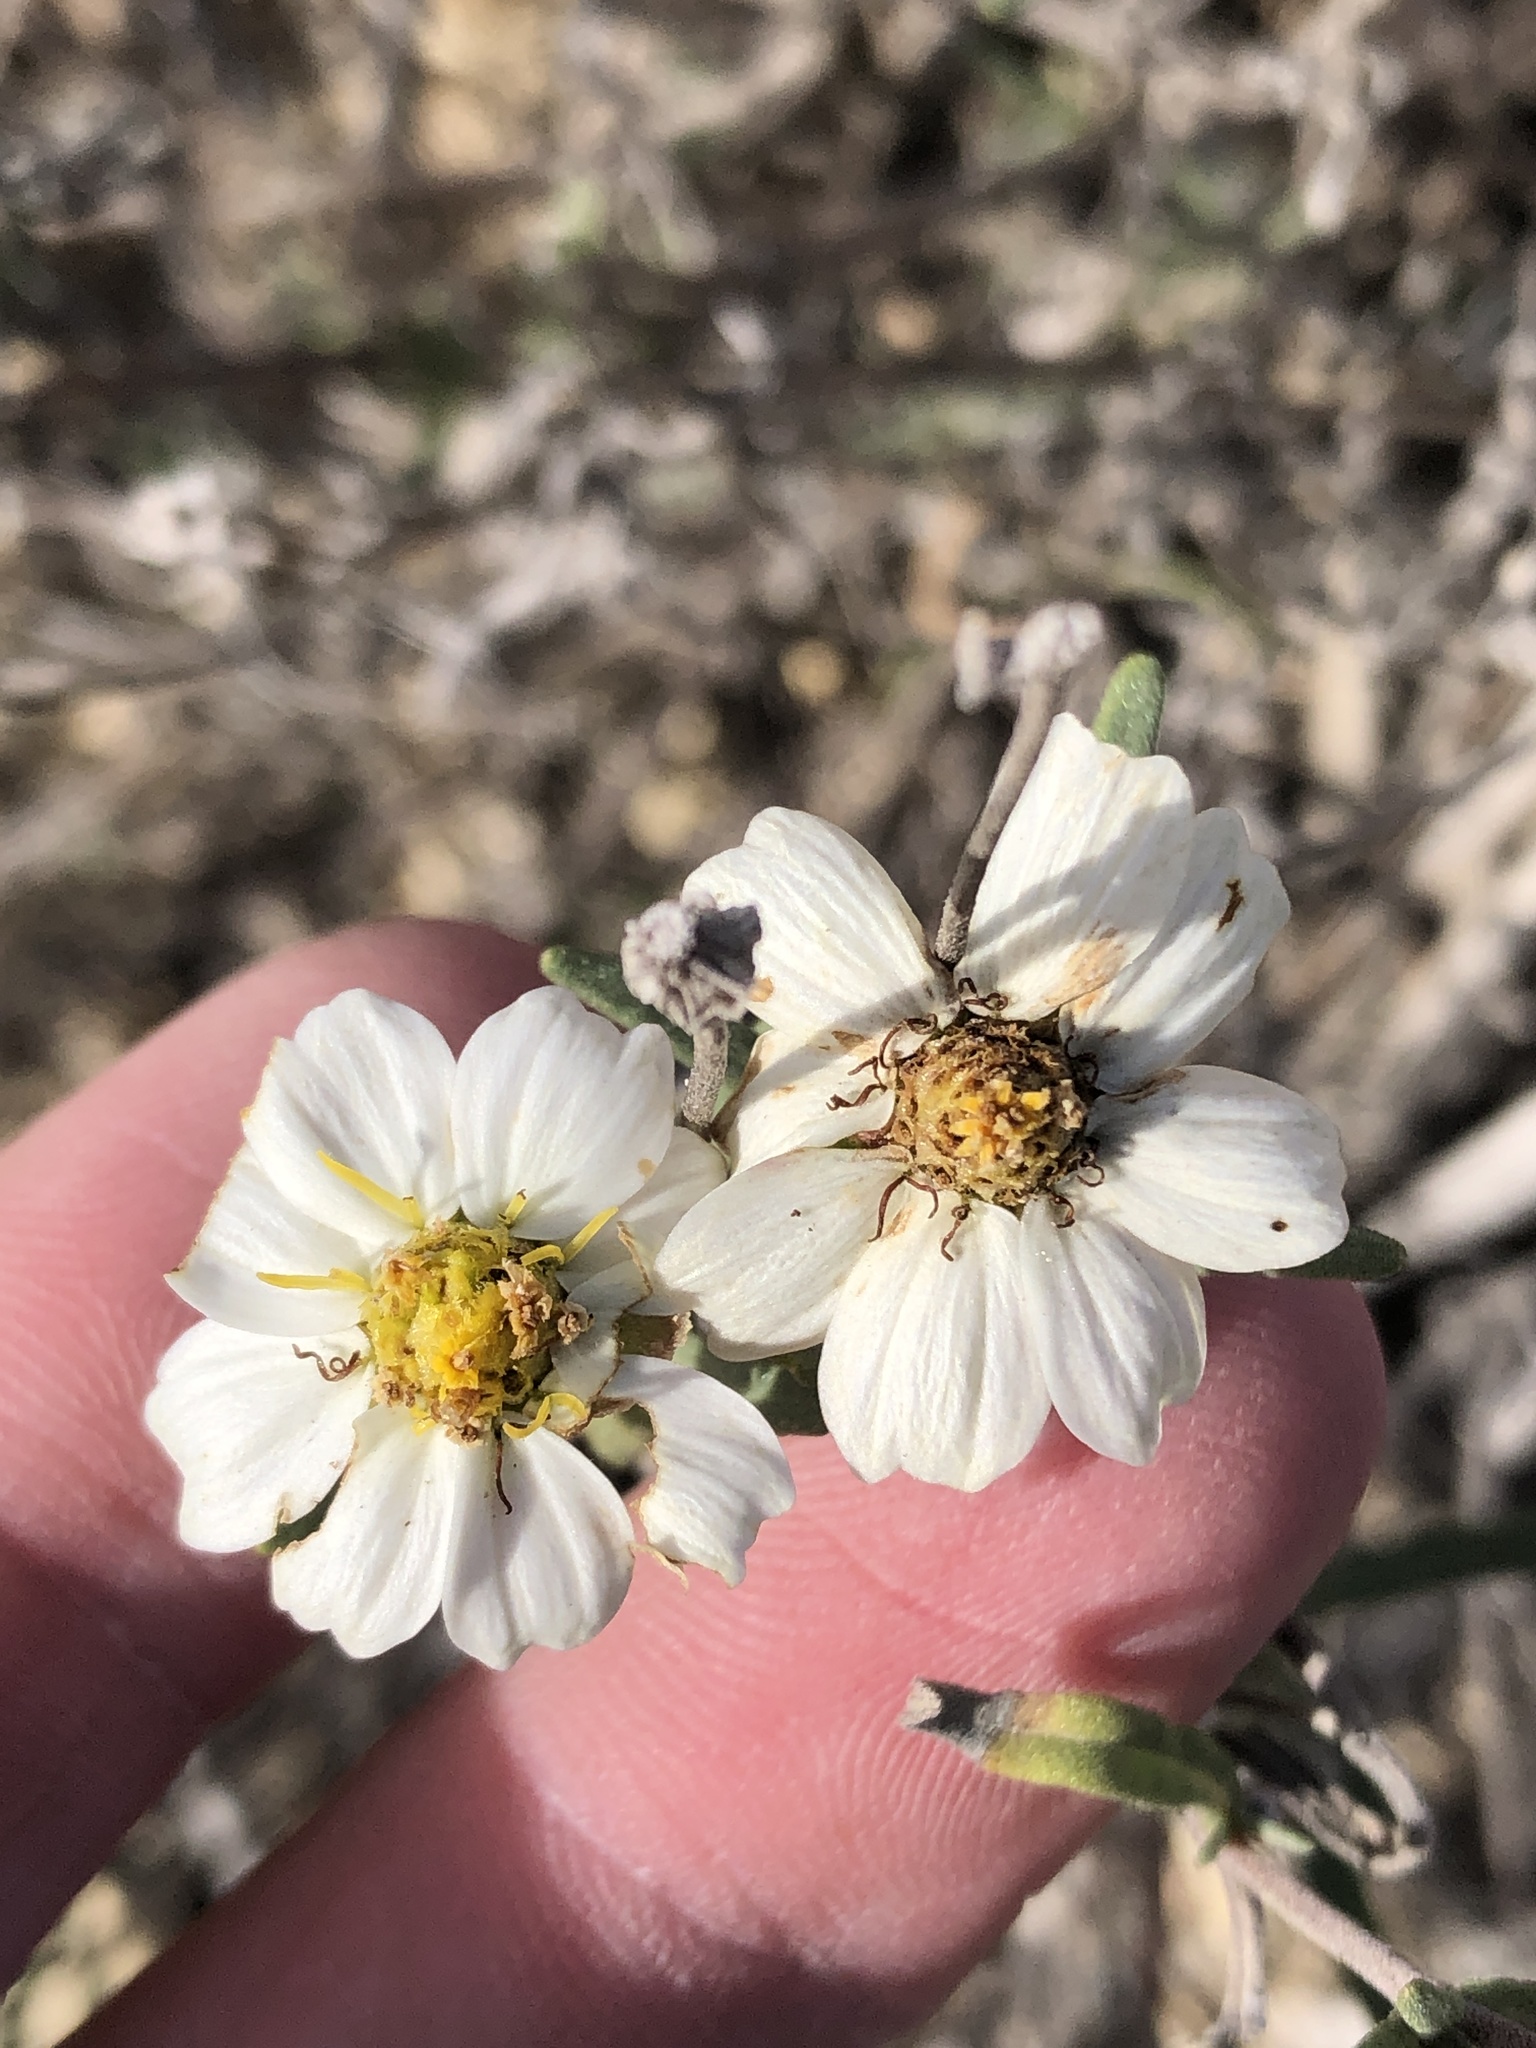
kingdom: Plantae
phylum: Tracheophyta
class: Magnoliopsida
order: Asterales
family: Asteraceae
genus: Melampodium
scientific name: Melampodium leucanthum
